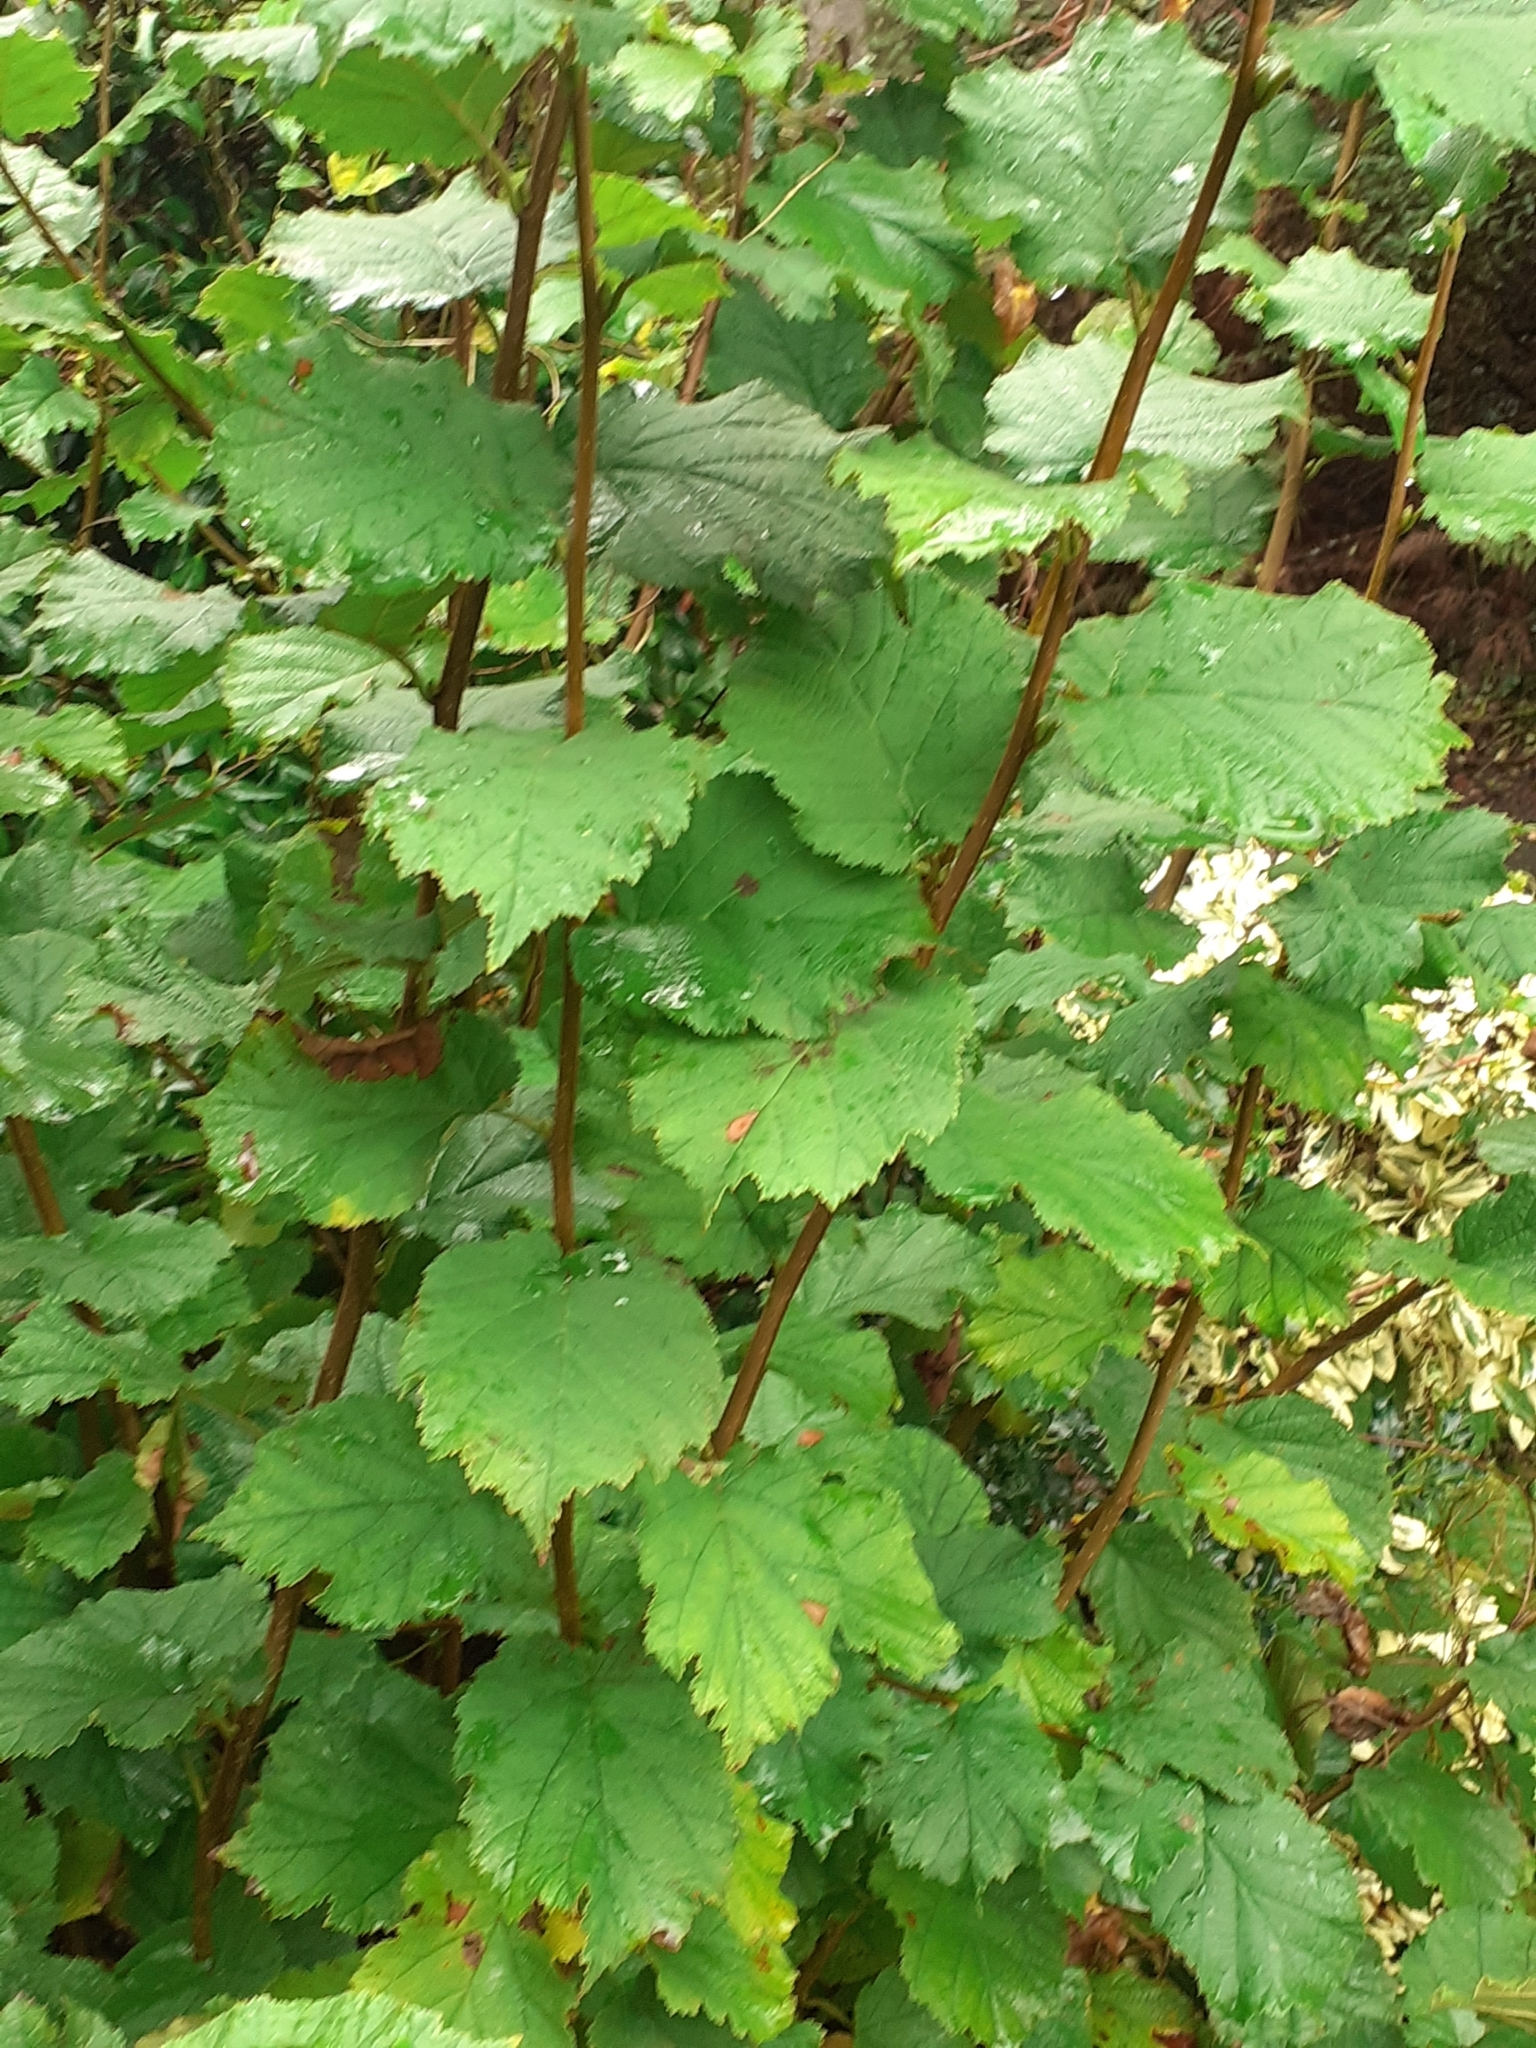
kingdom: Plantae
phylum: Tracheophyta
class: Magnoliopsida
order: Fagales
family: Betulaceae
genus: Corylus
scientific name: Corylus avellana
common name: European hazel
